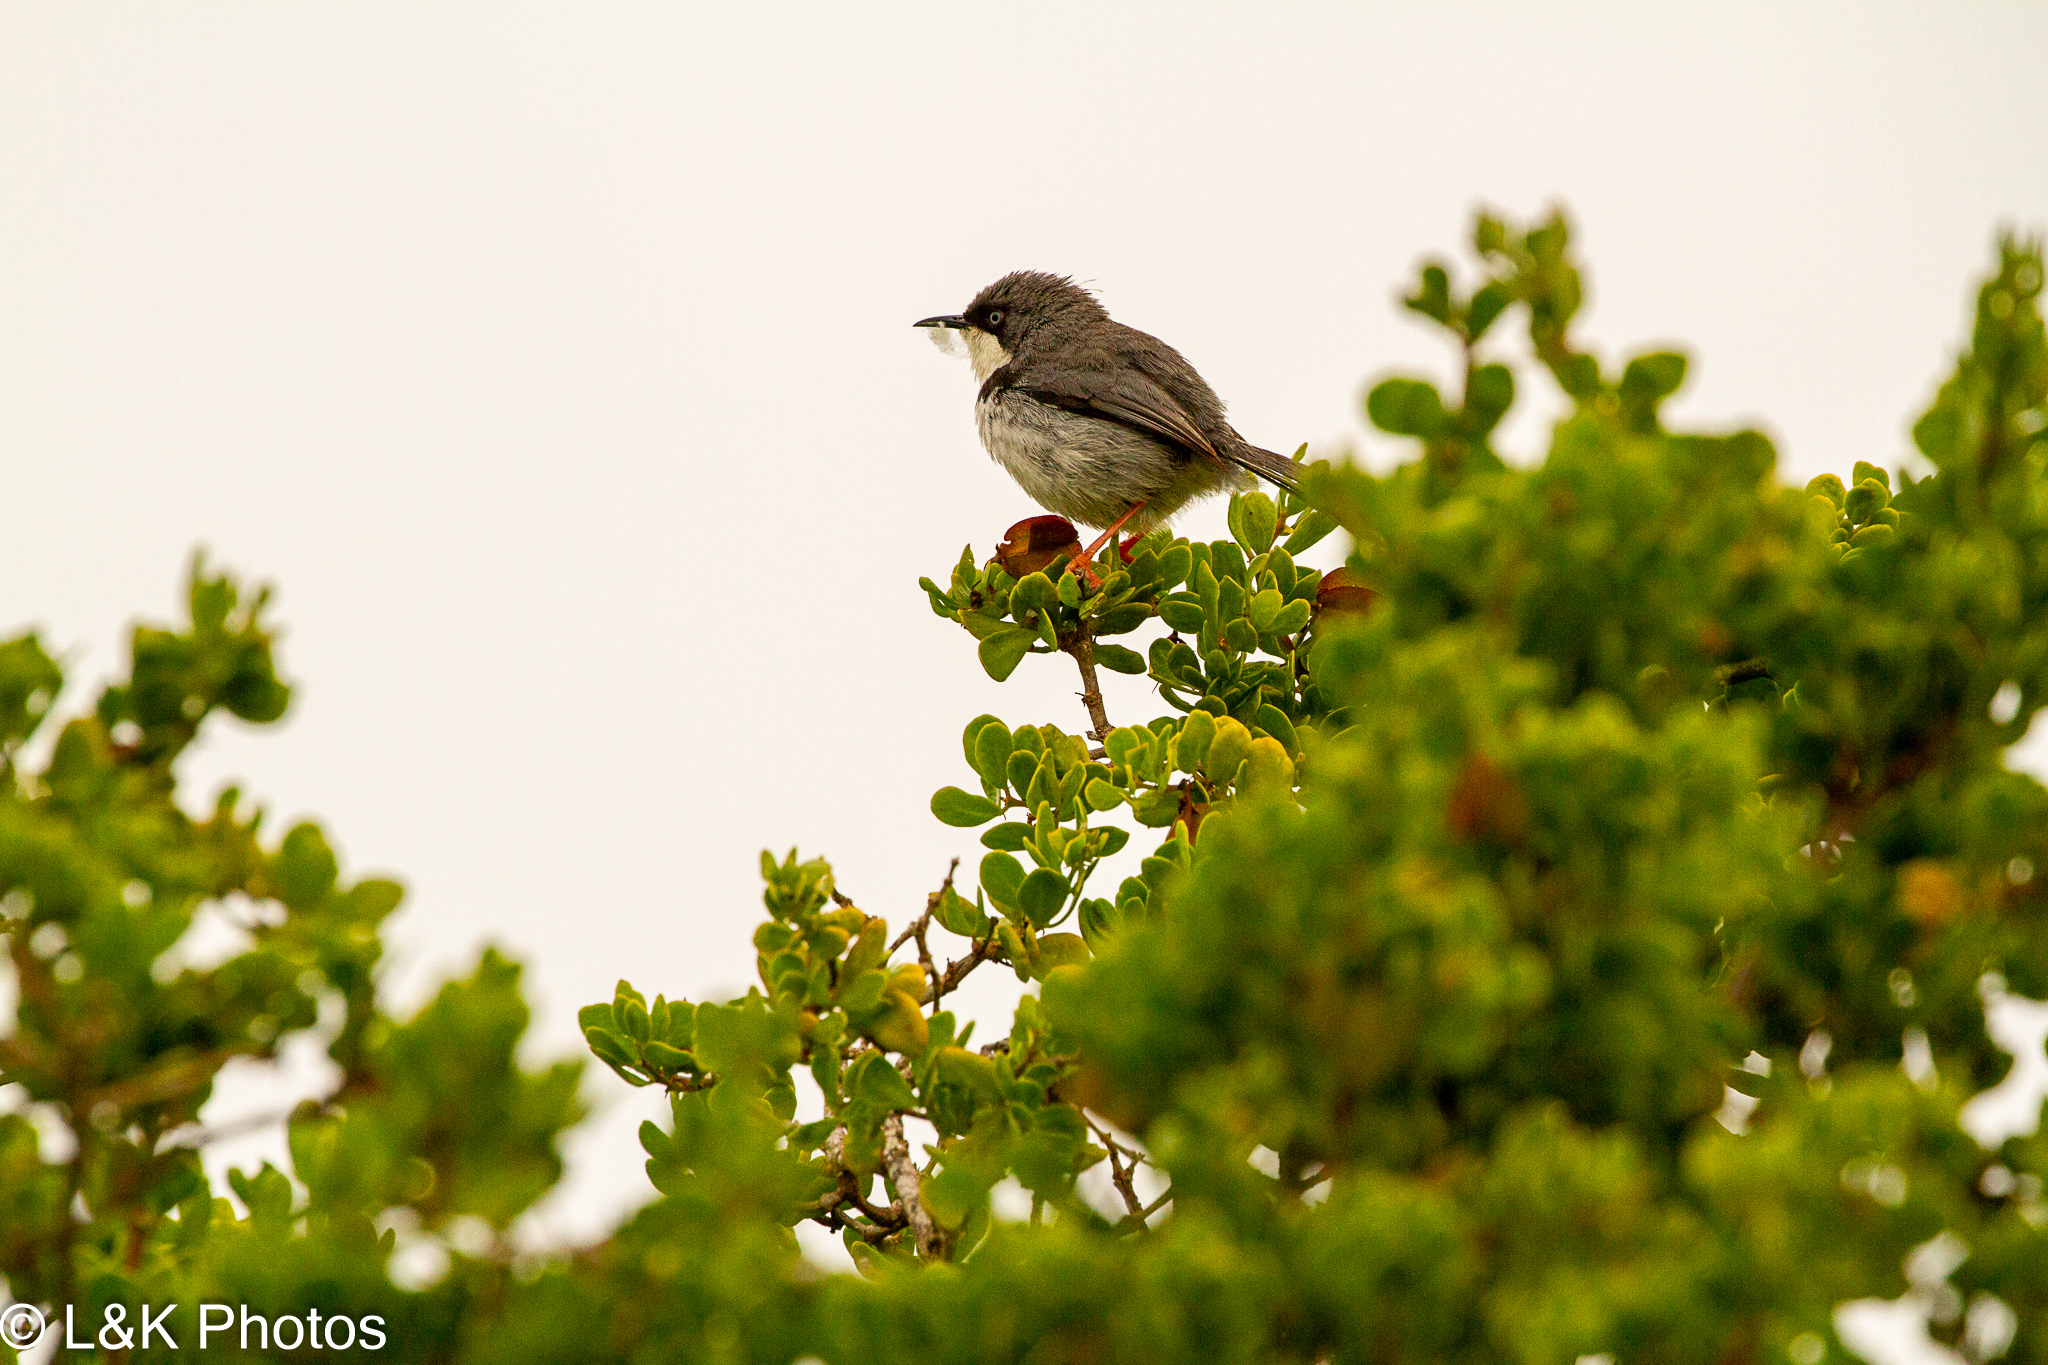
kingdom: Animalia
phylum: Chordata
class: Aves
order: Passeriformes
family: Cisticolidae
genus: Apalis
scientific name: Apalis thoracica
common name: Bar-throated apalis
